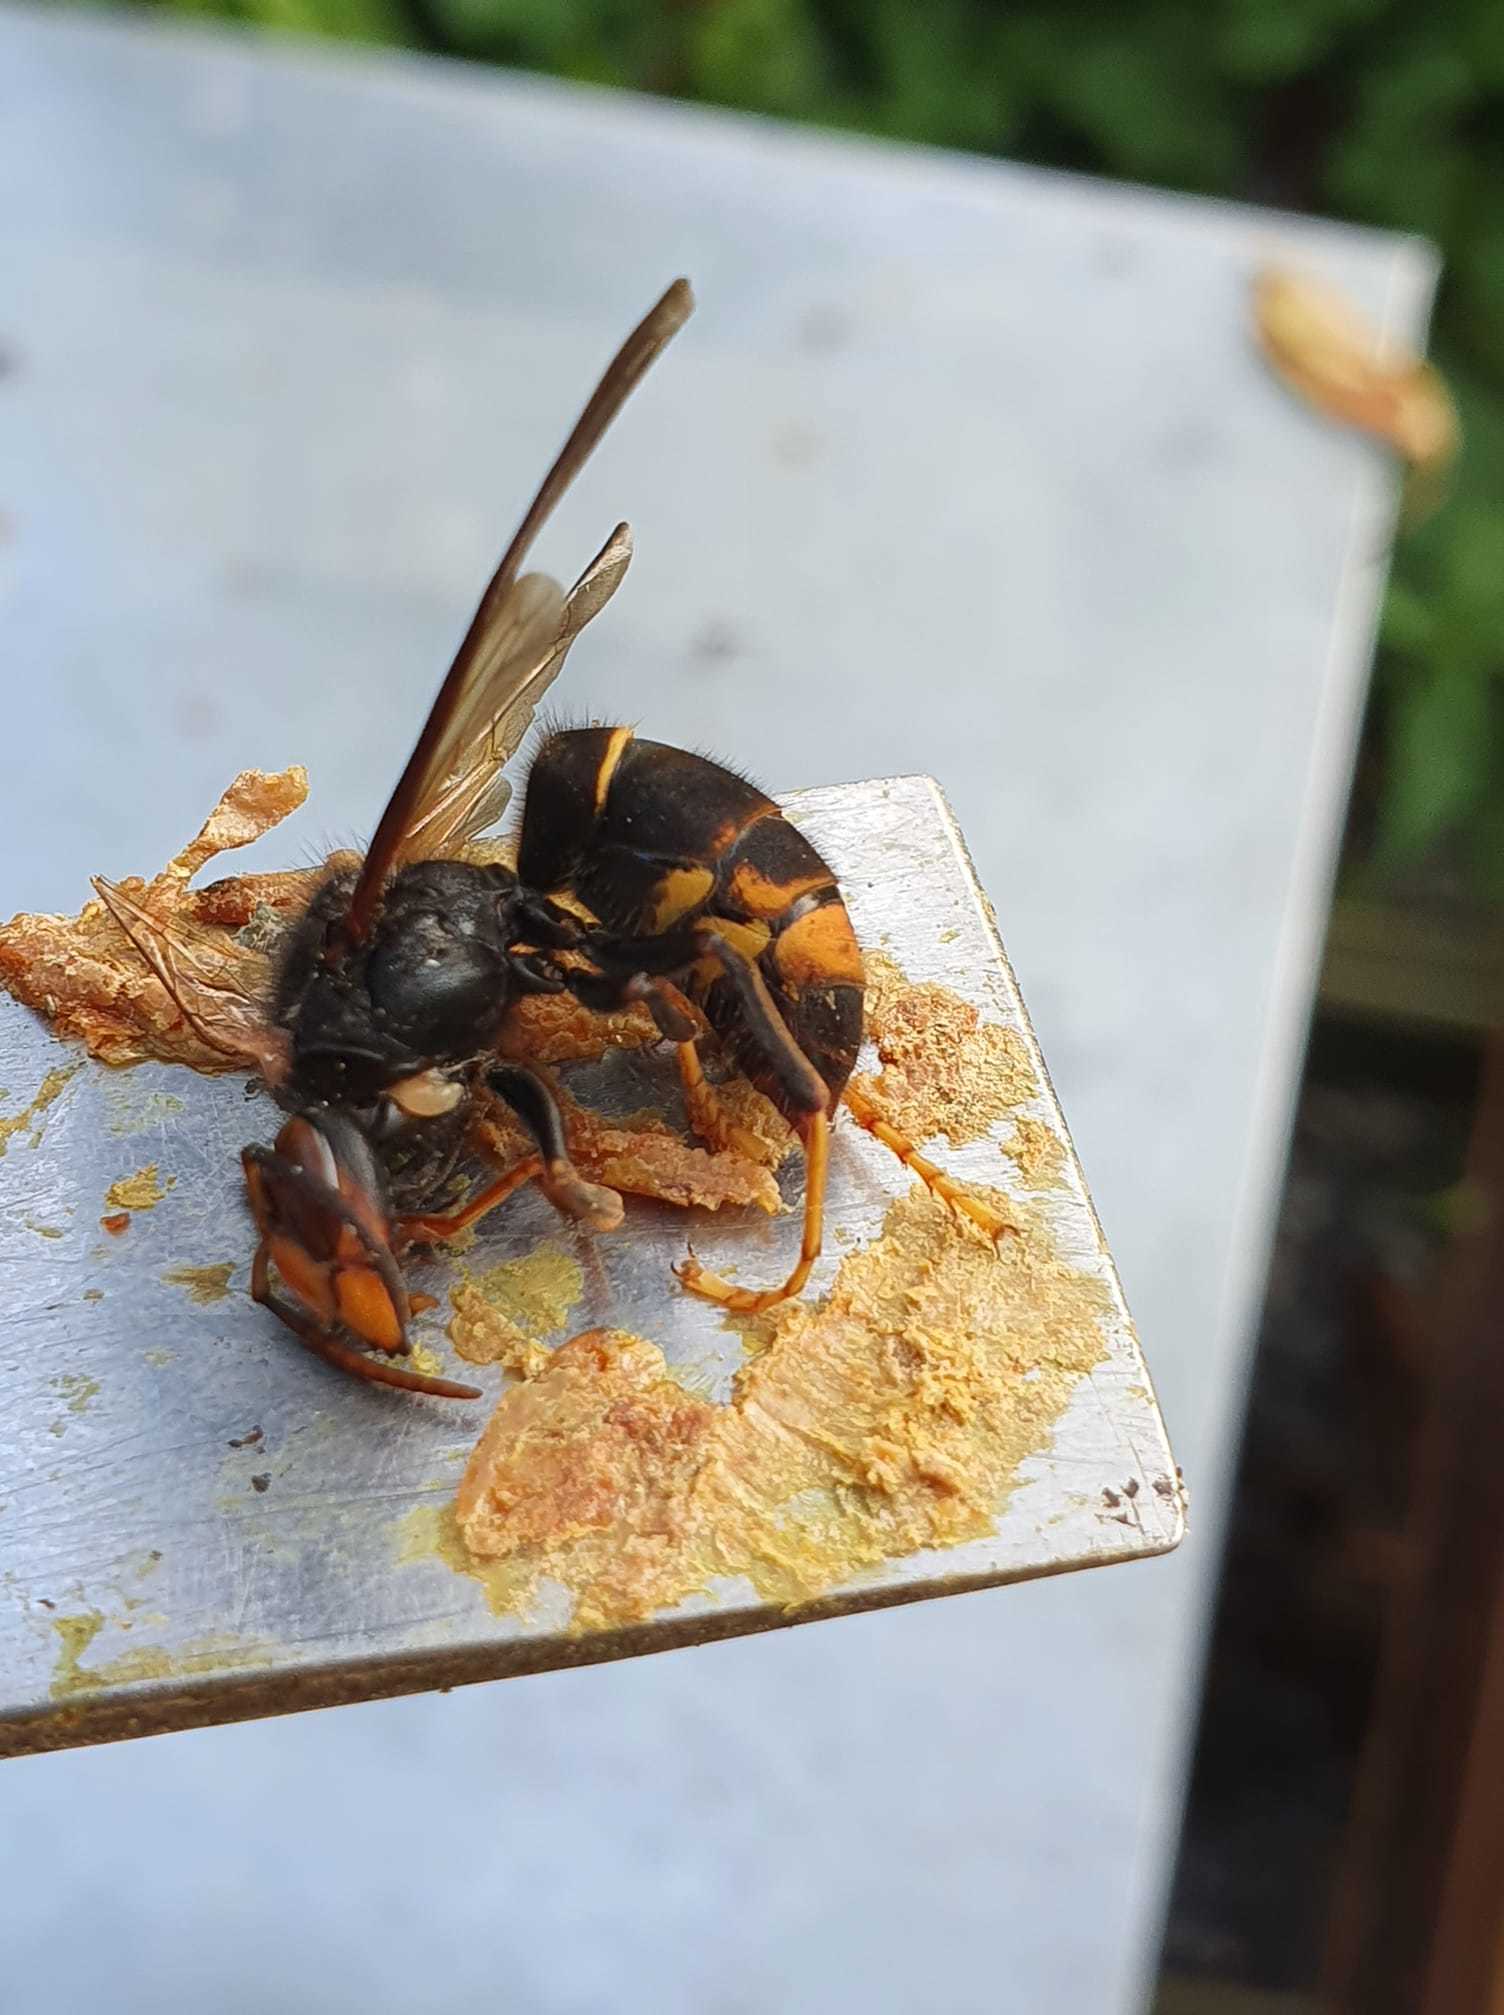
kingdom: Animalia
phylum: Arthropoda
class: Insecta
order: Hymenoptera
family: Vespidae
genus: Vespa
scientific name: Vespa velutina
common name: Asian hornet
